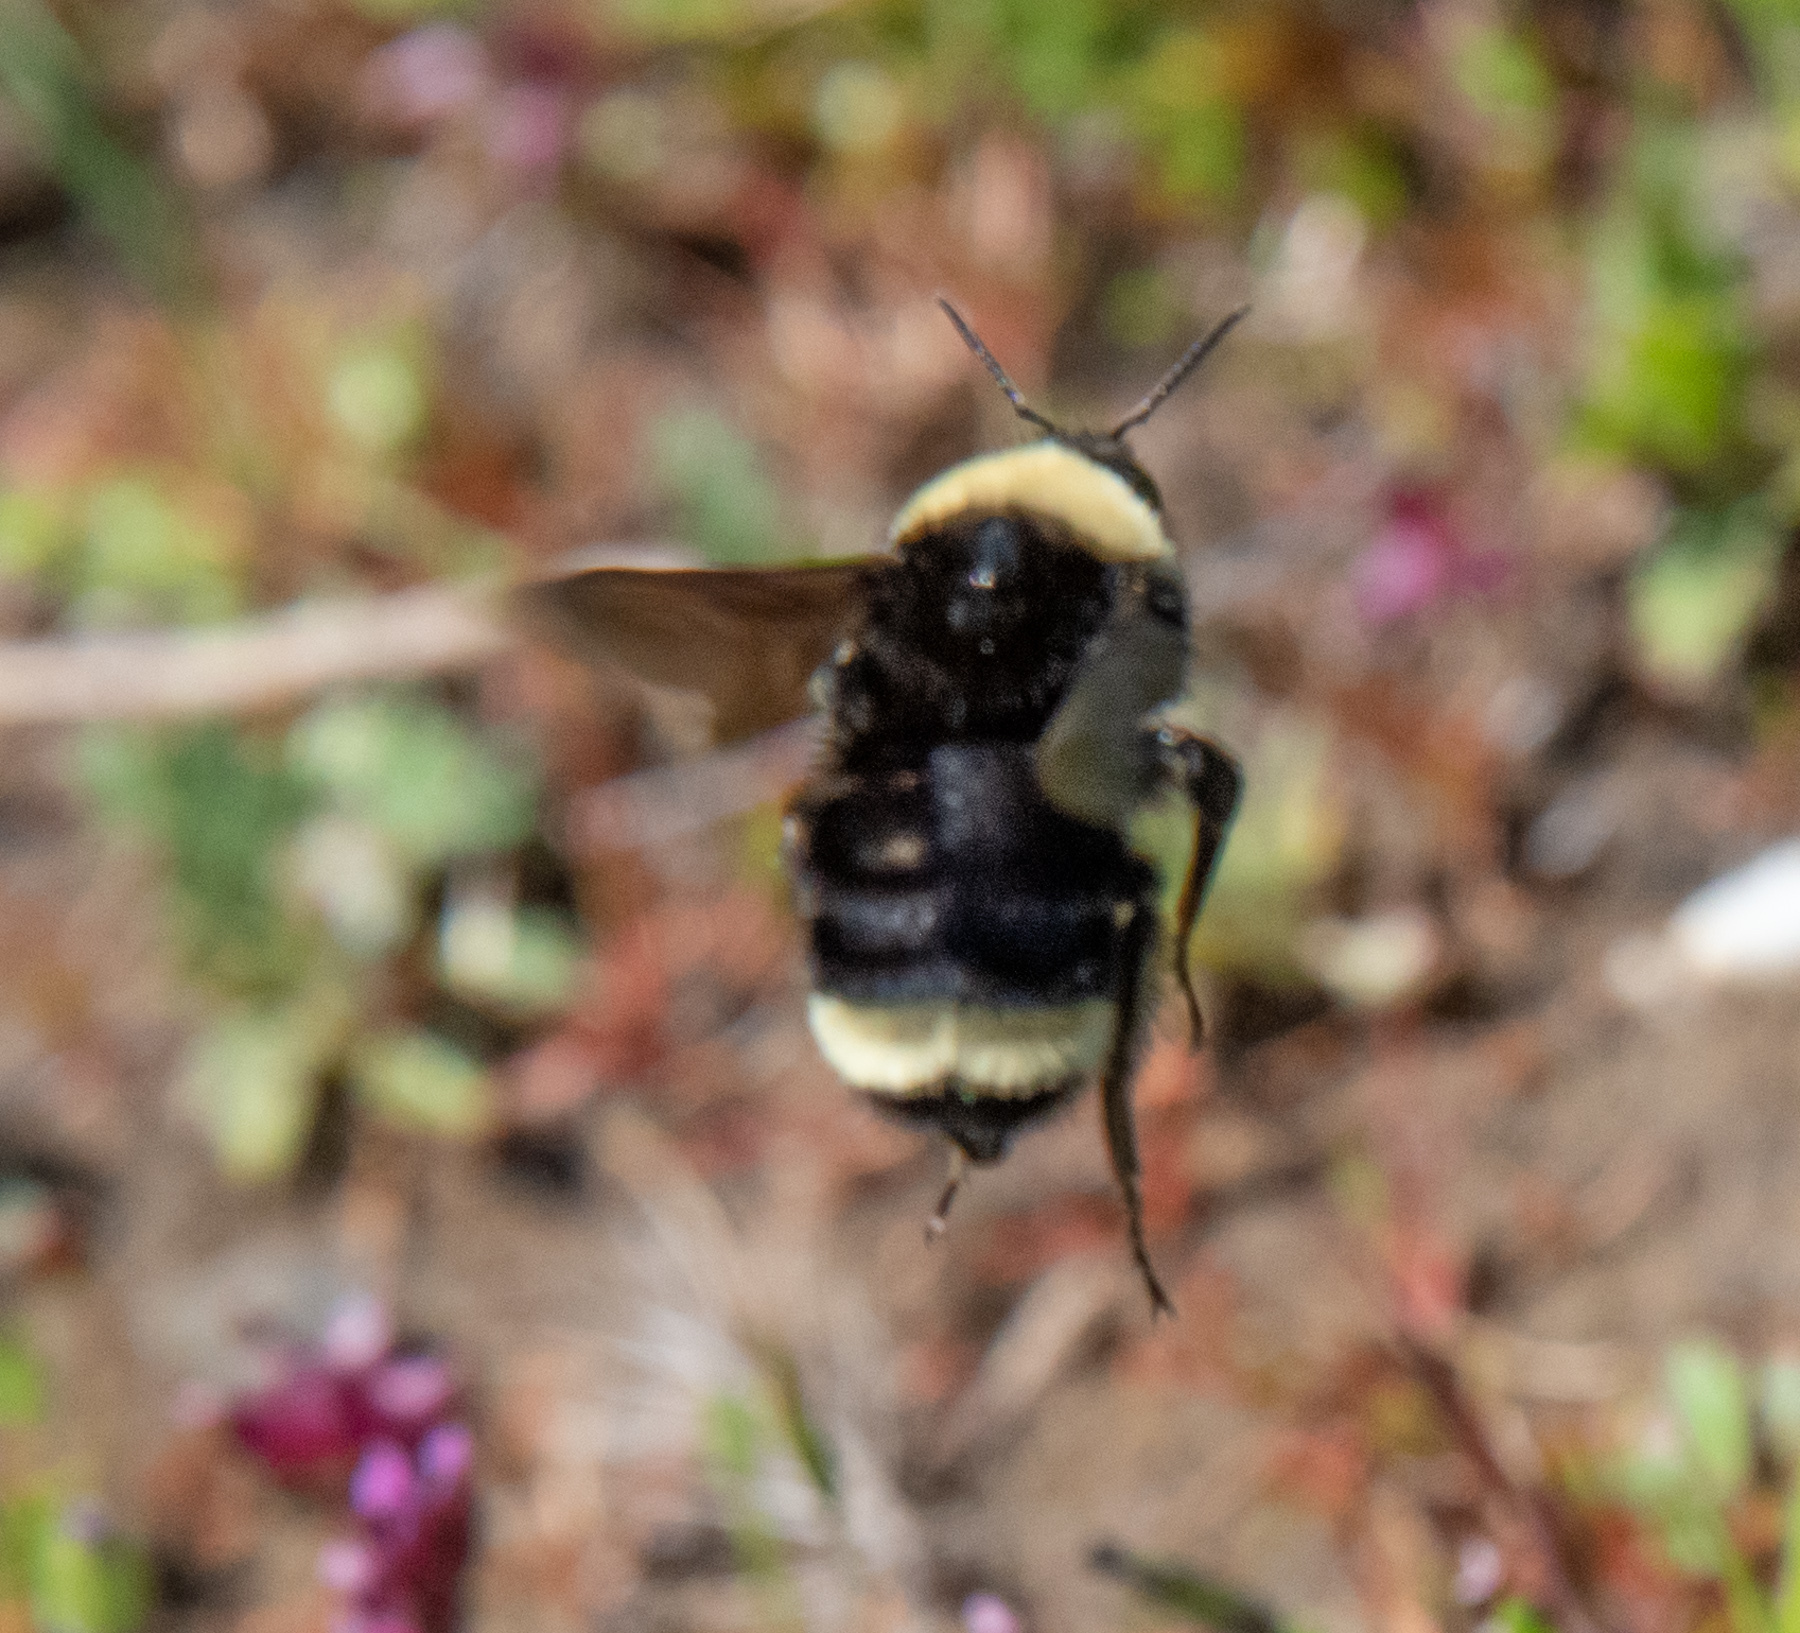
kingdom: Animalia
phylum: Arthropoda
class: Insecta
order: Hymenoptera
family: Apidae
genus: Bombus
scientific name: Bombus californicus
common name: California bumble bee
